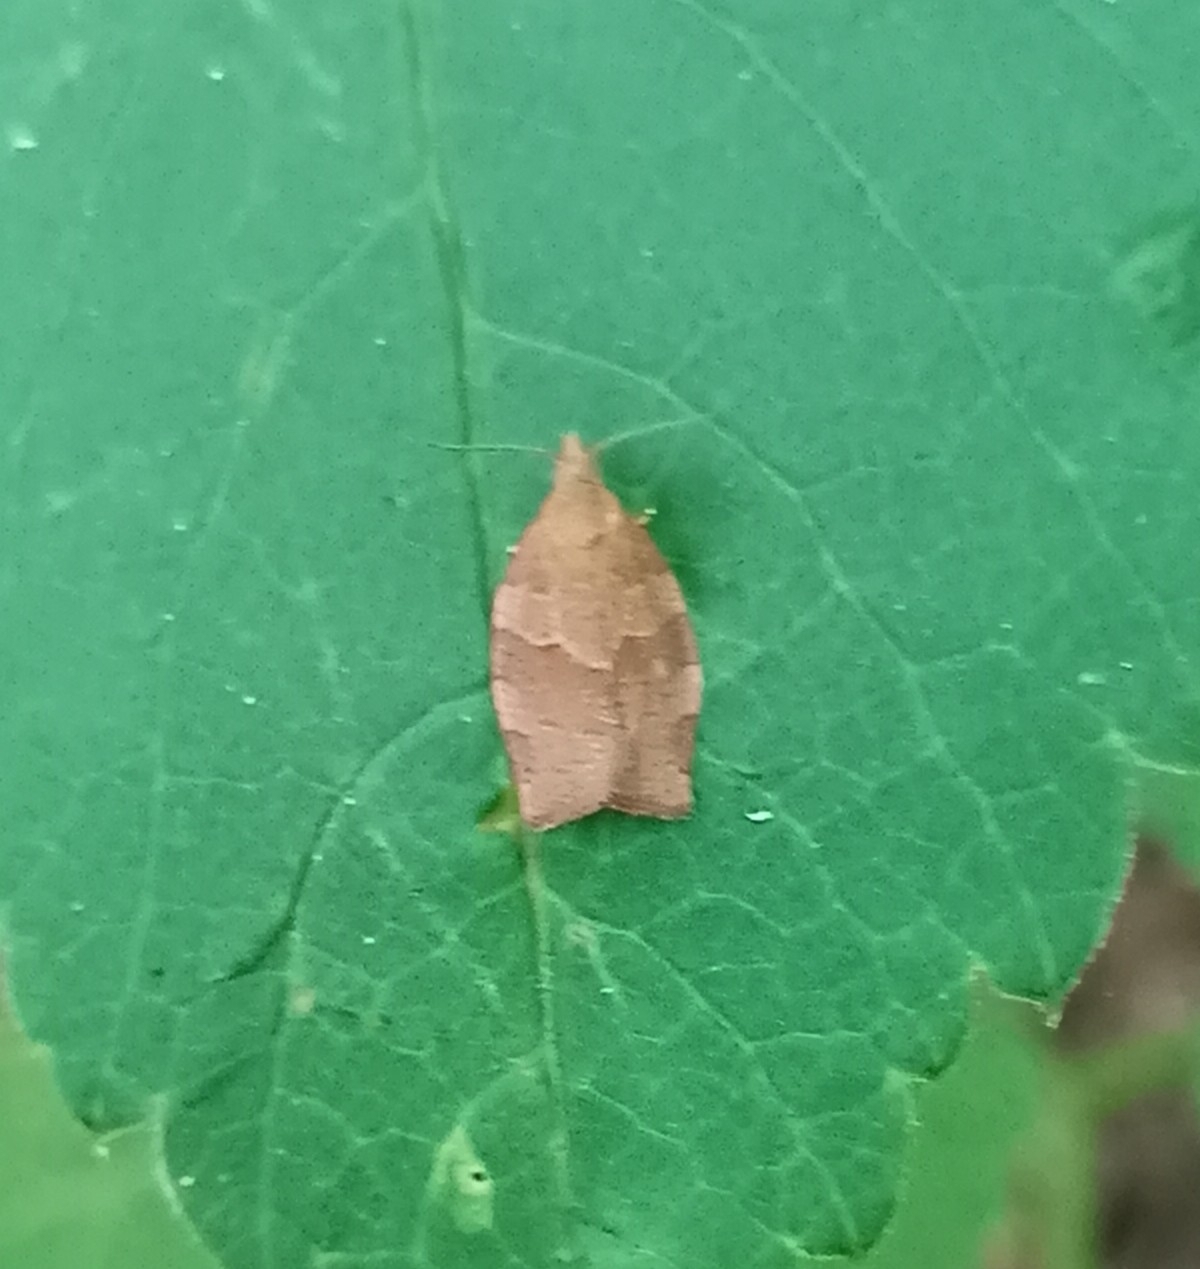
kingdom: Animalia
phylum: Arthropoda
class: Insecta
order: Lepidoptera
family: Tortricidae
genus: Pandemis
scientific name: Pandemis heparana
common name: Dark fruit-tree tortrix
